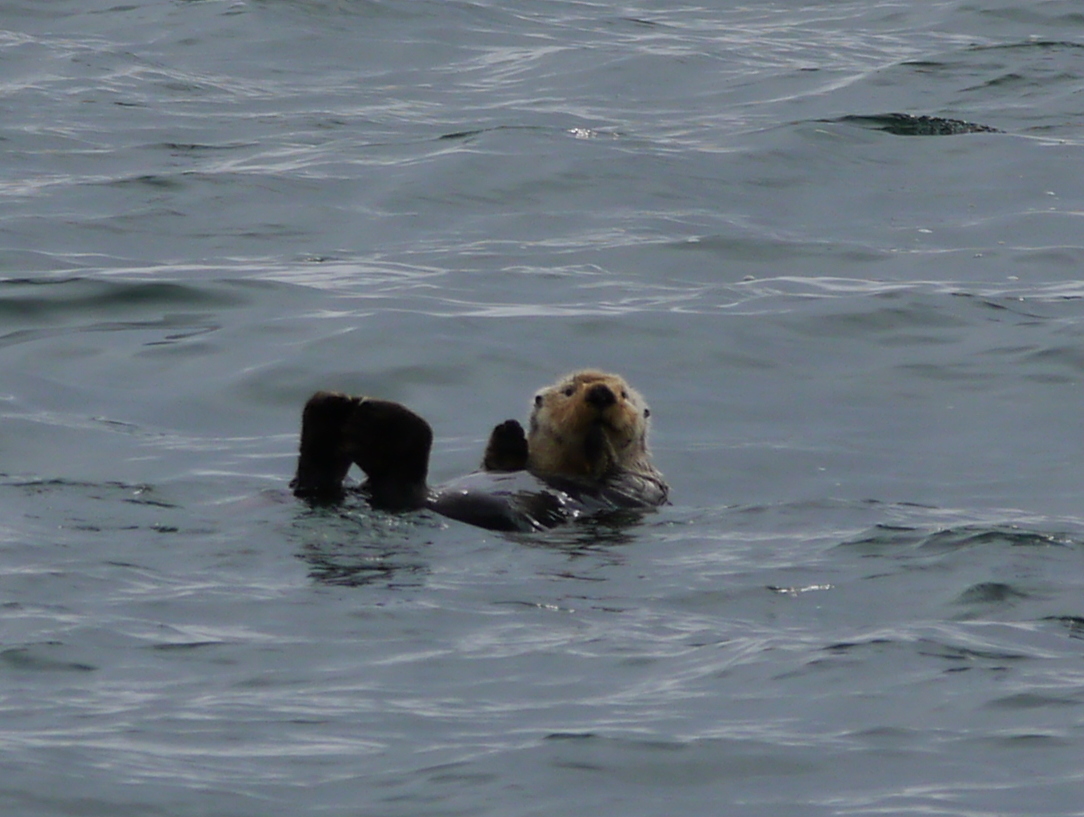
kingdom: Animalia
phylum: Chordata
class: Mammalia
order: Carnivora
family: Mustelidae
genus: Enhydra
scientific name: Enhydra lutris
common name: Sea otter
